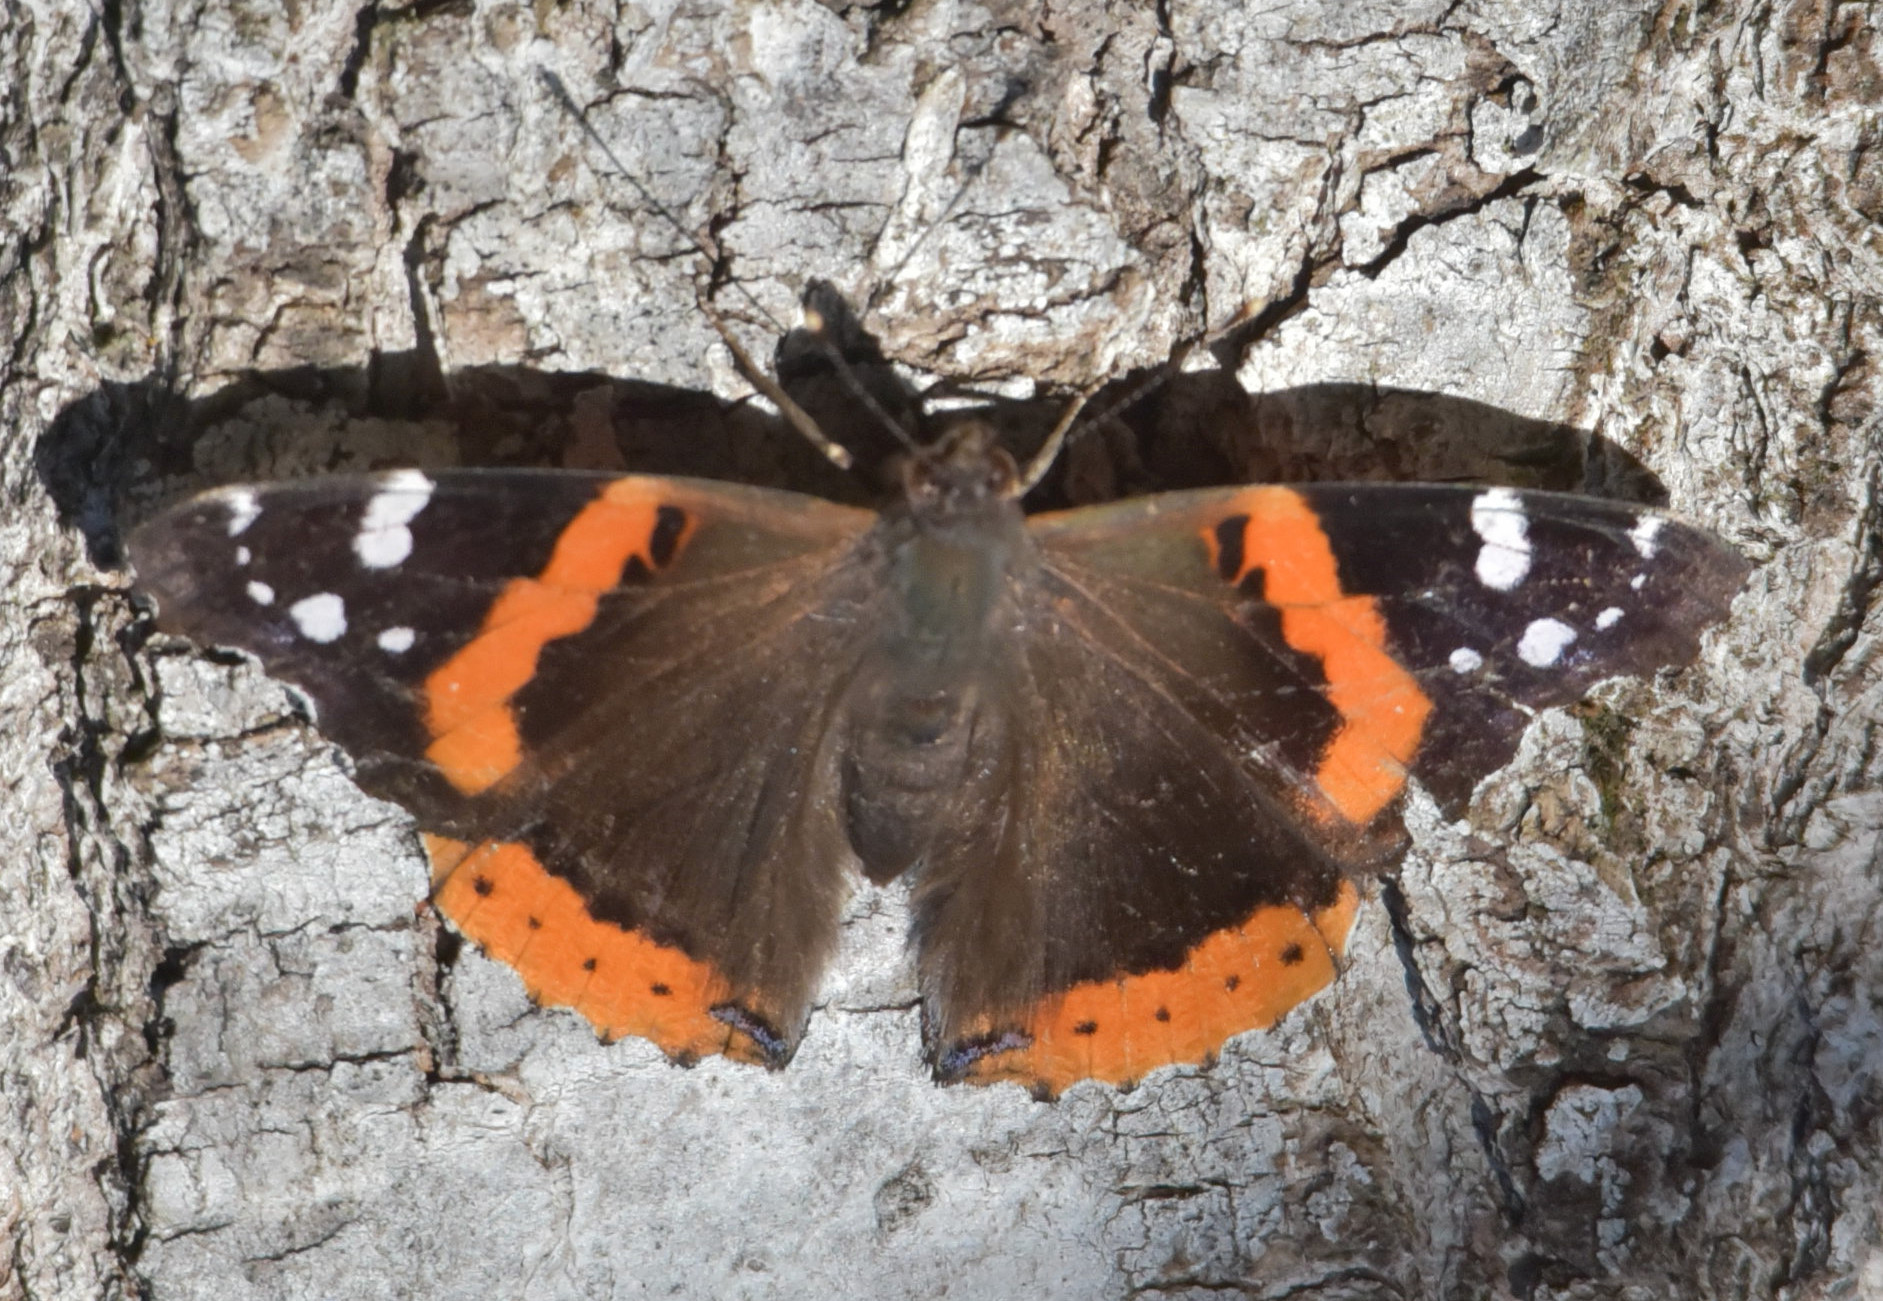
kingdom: Animalia
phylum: Arthropoda
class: Insecta
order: Lepidoptera
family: Nymphalidae
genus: Vanessa
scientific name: Vanessa atalanta
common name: Red admiral
